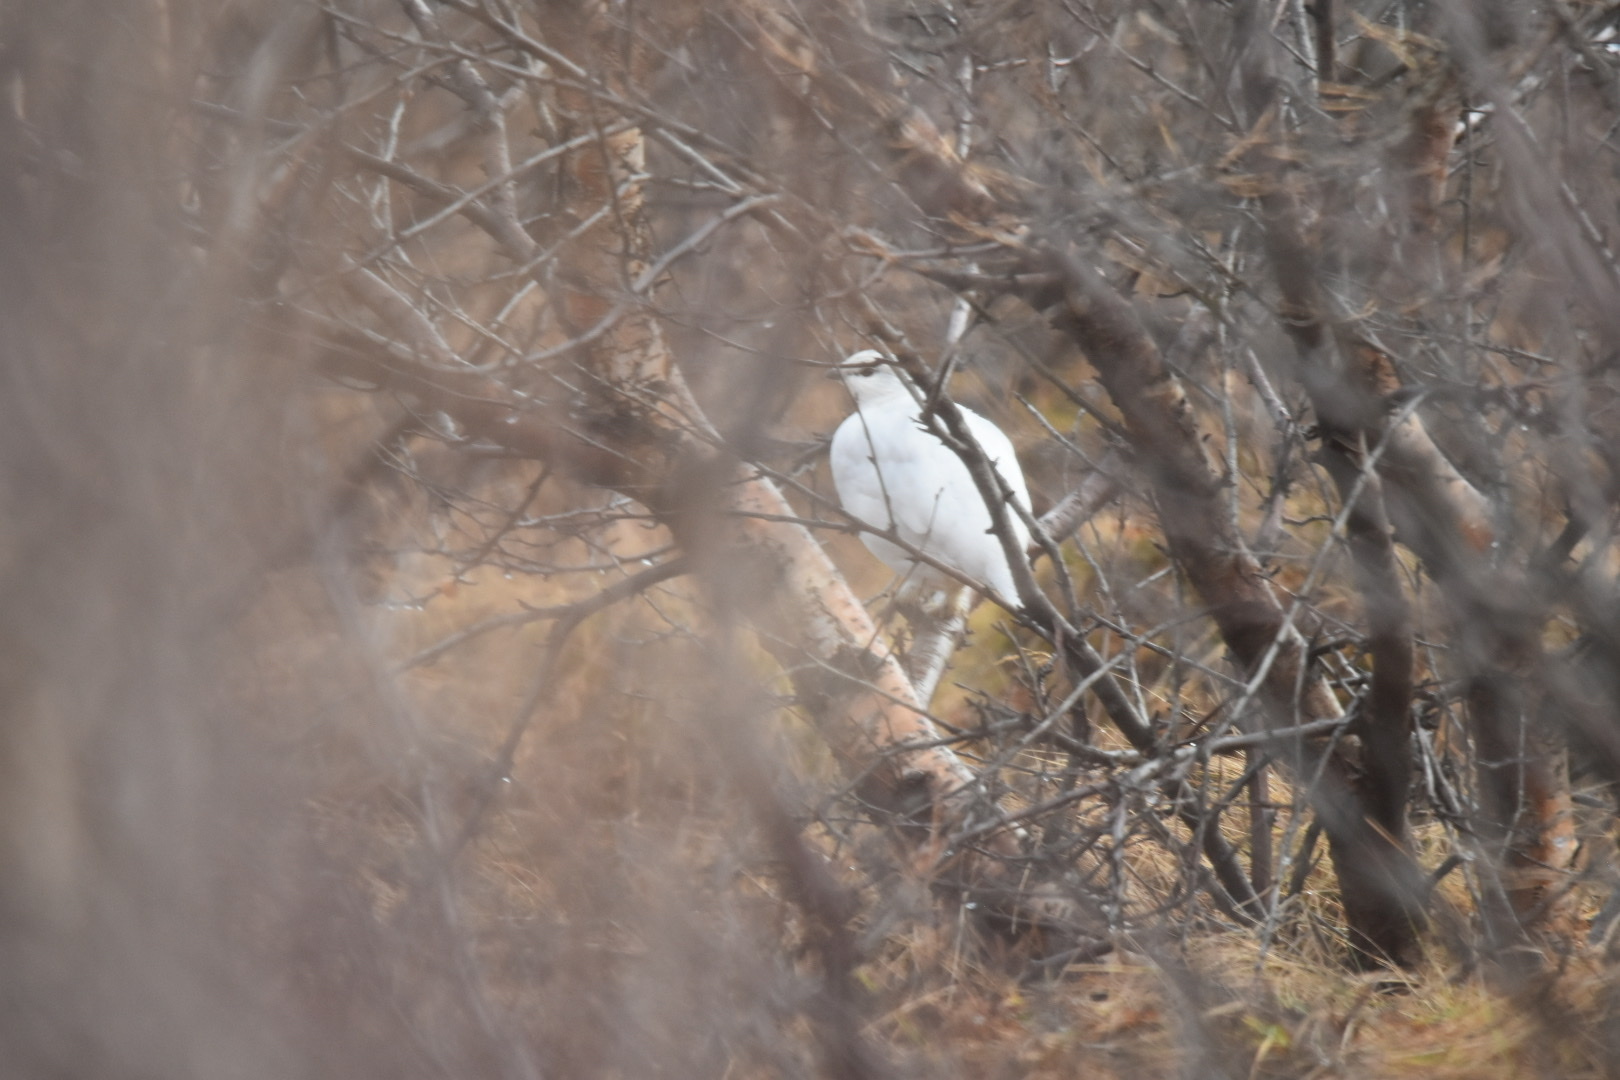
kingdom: Animalia
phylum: Chordata
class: Aves
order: Galliformes
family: Phasianidae
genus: Lagopus
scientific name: Lagopus muta
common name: Rock ptarmigan
